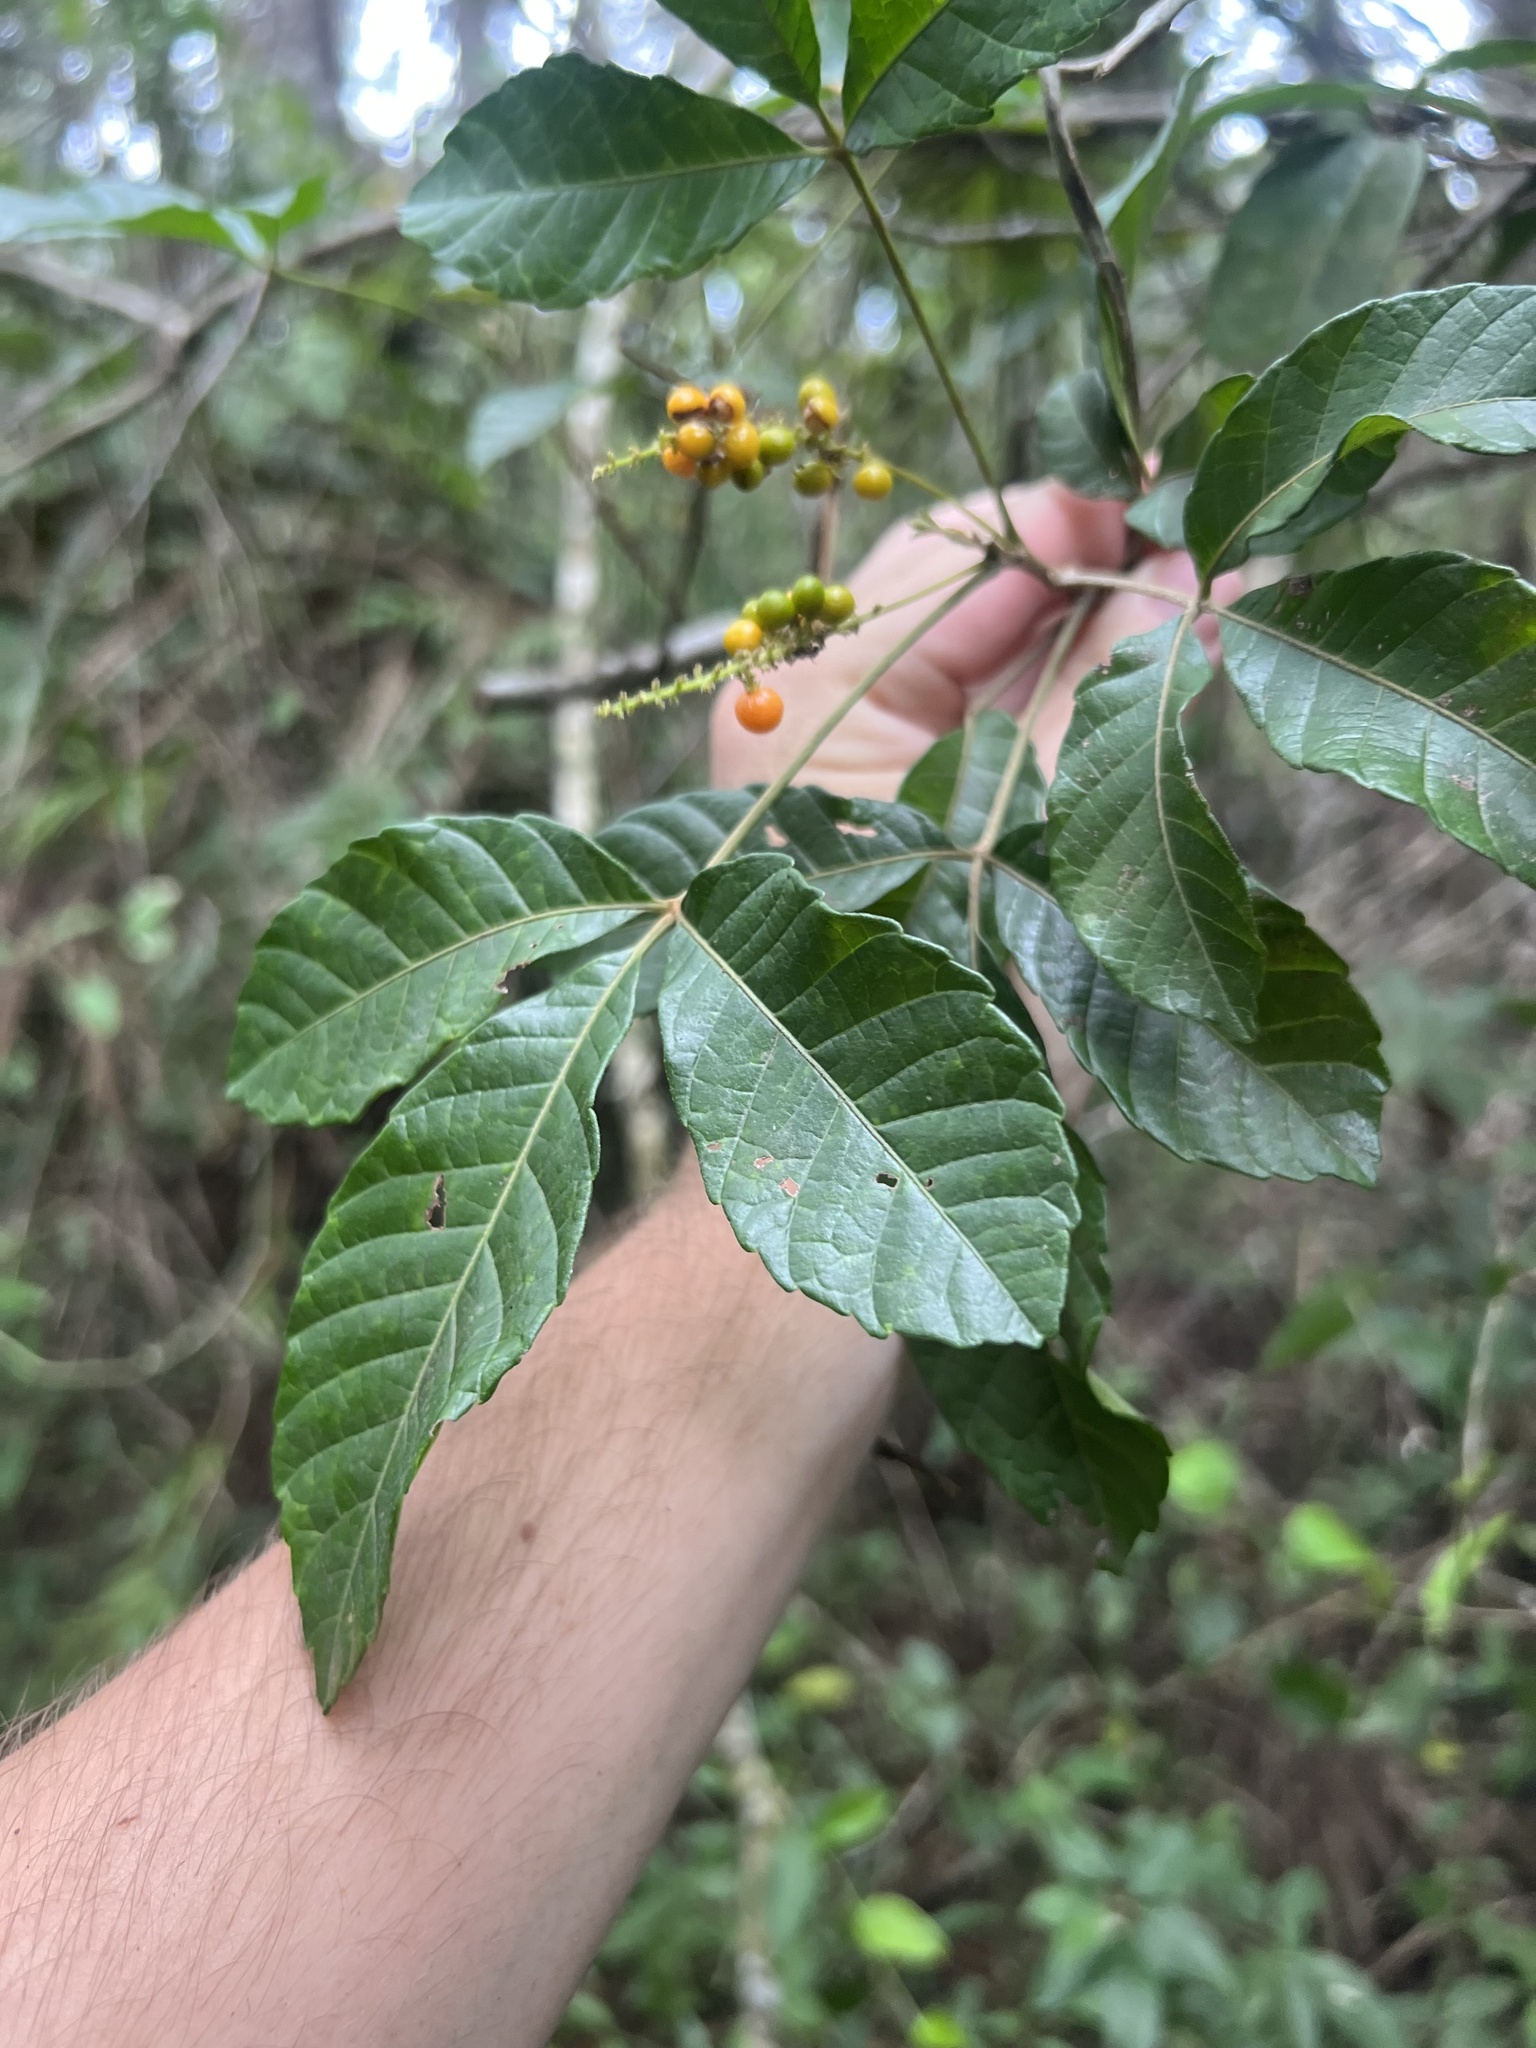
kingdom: Plantae
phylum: Tracheophyta
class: Magnoliopsida
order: Sapindales
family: Sapindaceae
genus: Allophylus
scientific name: Allophylus cominia
